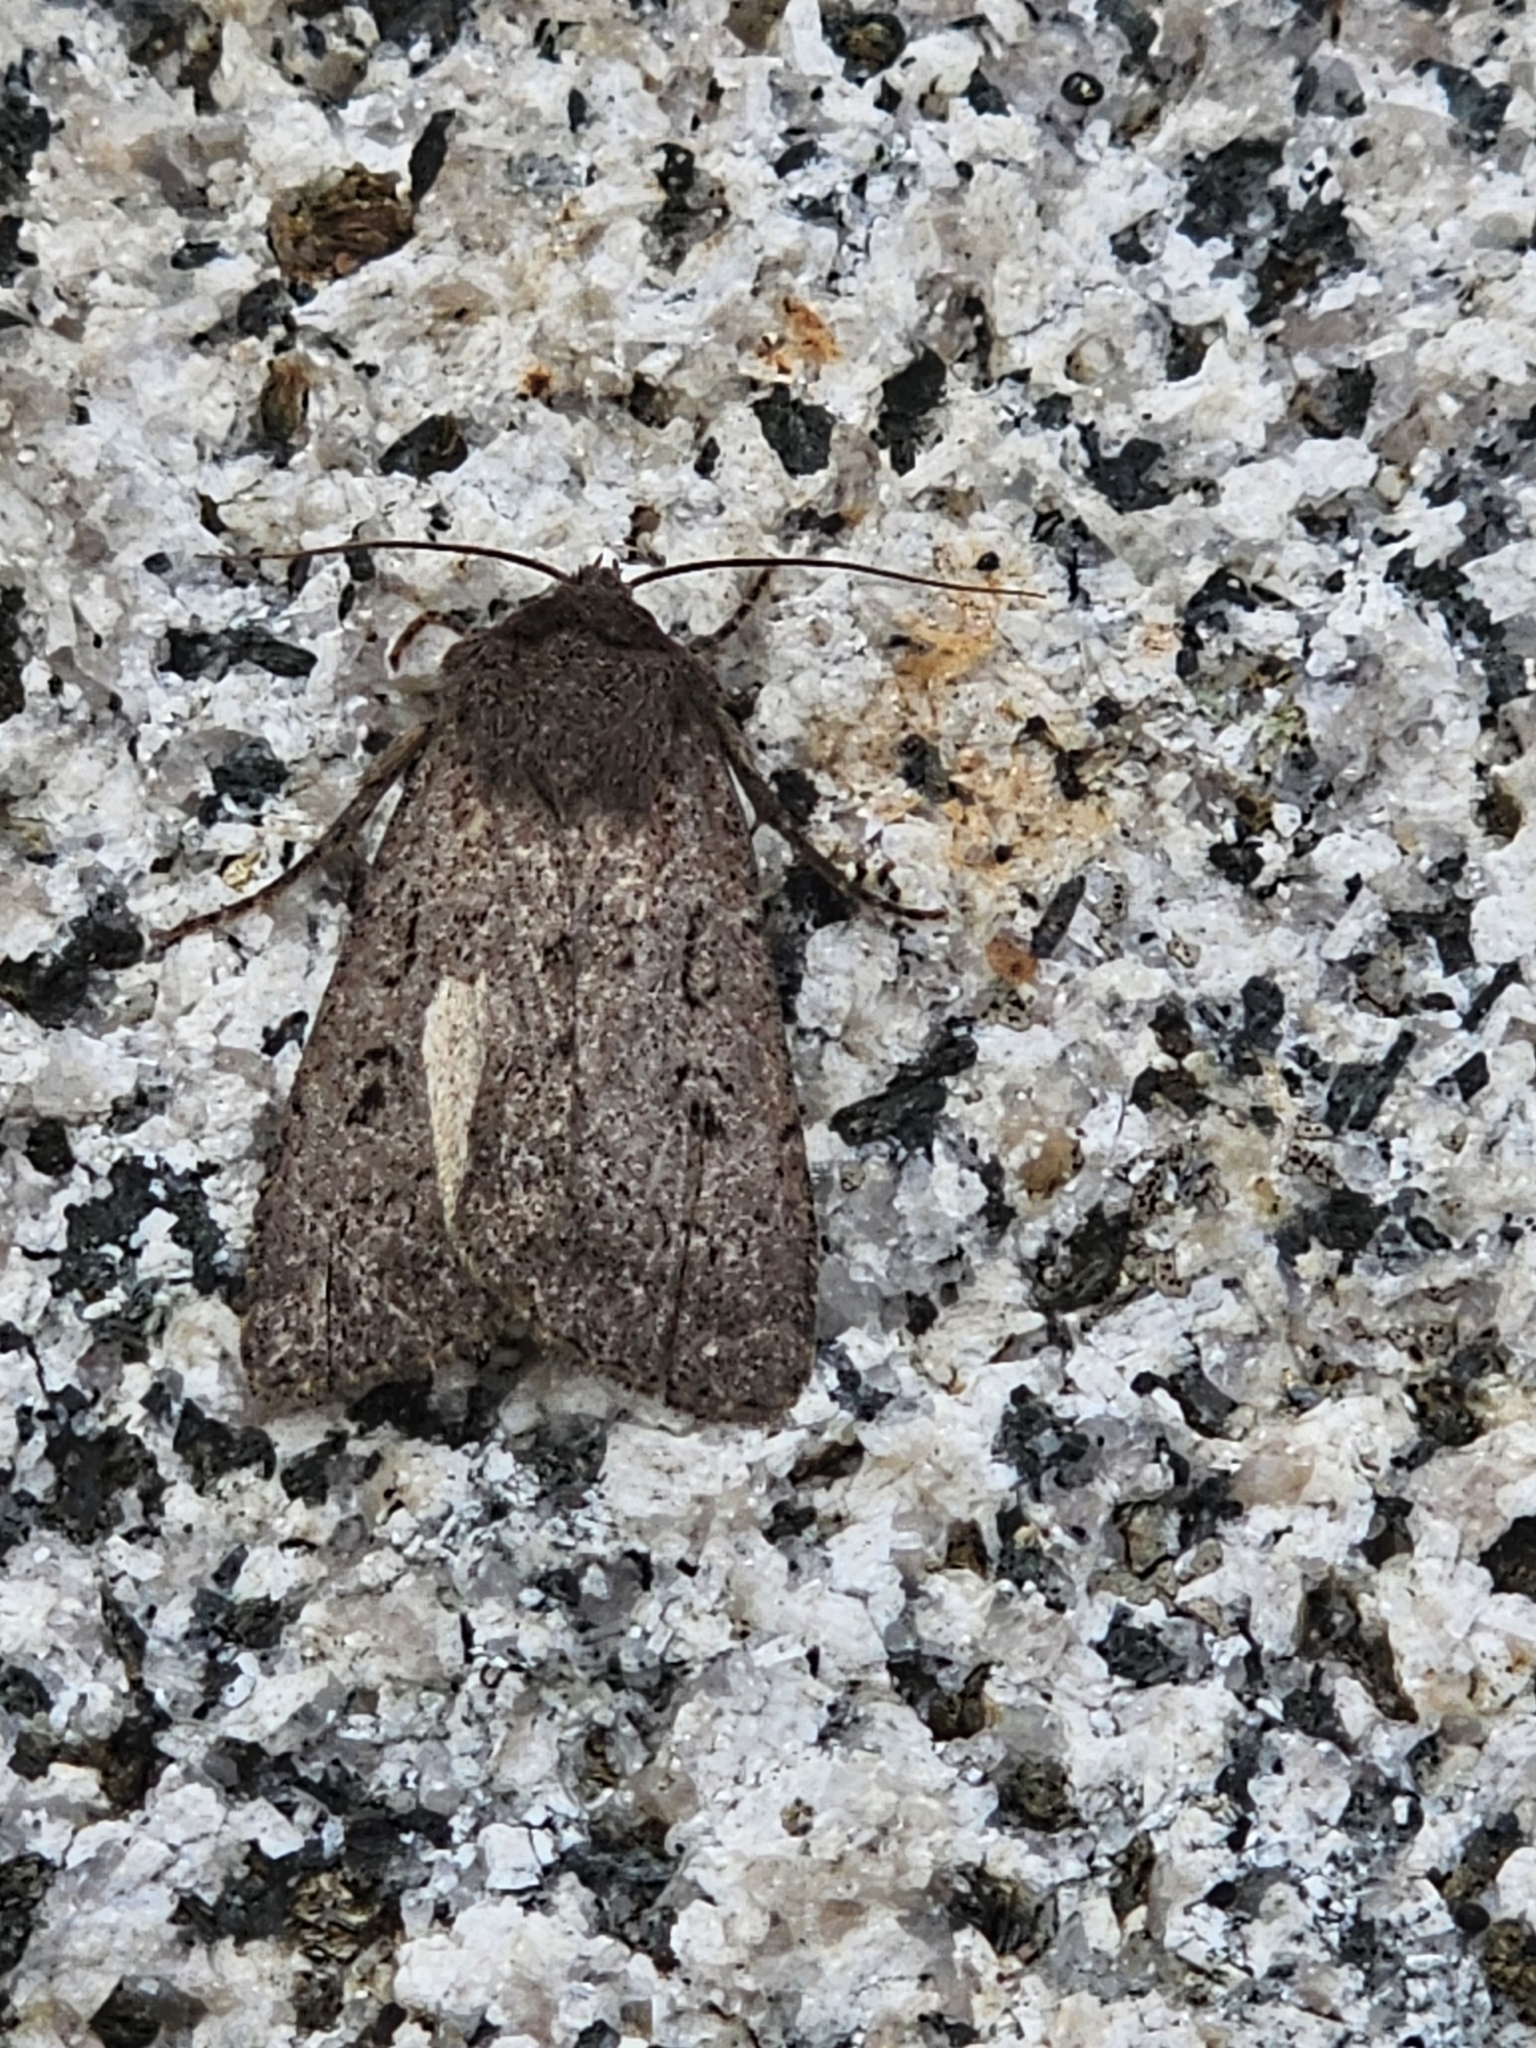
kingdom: Animalia
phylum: Arthropoda
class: Insecta
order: Lepidoptera
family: Noctuidae
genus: Graphiphora
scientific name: Graphiphora augur
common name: Double dart
